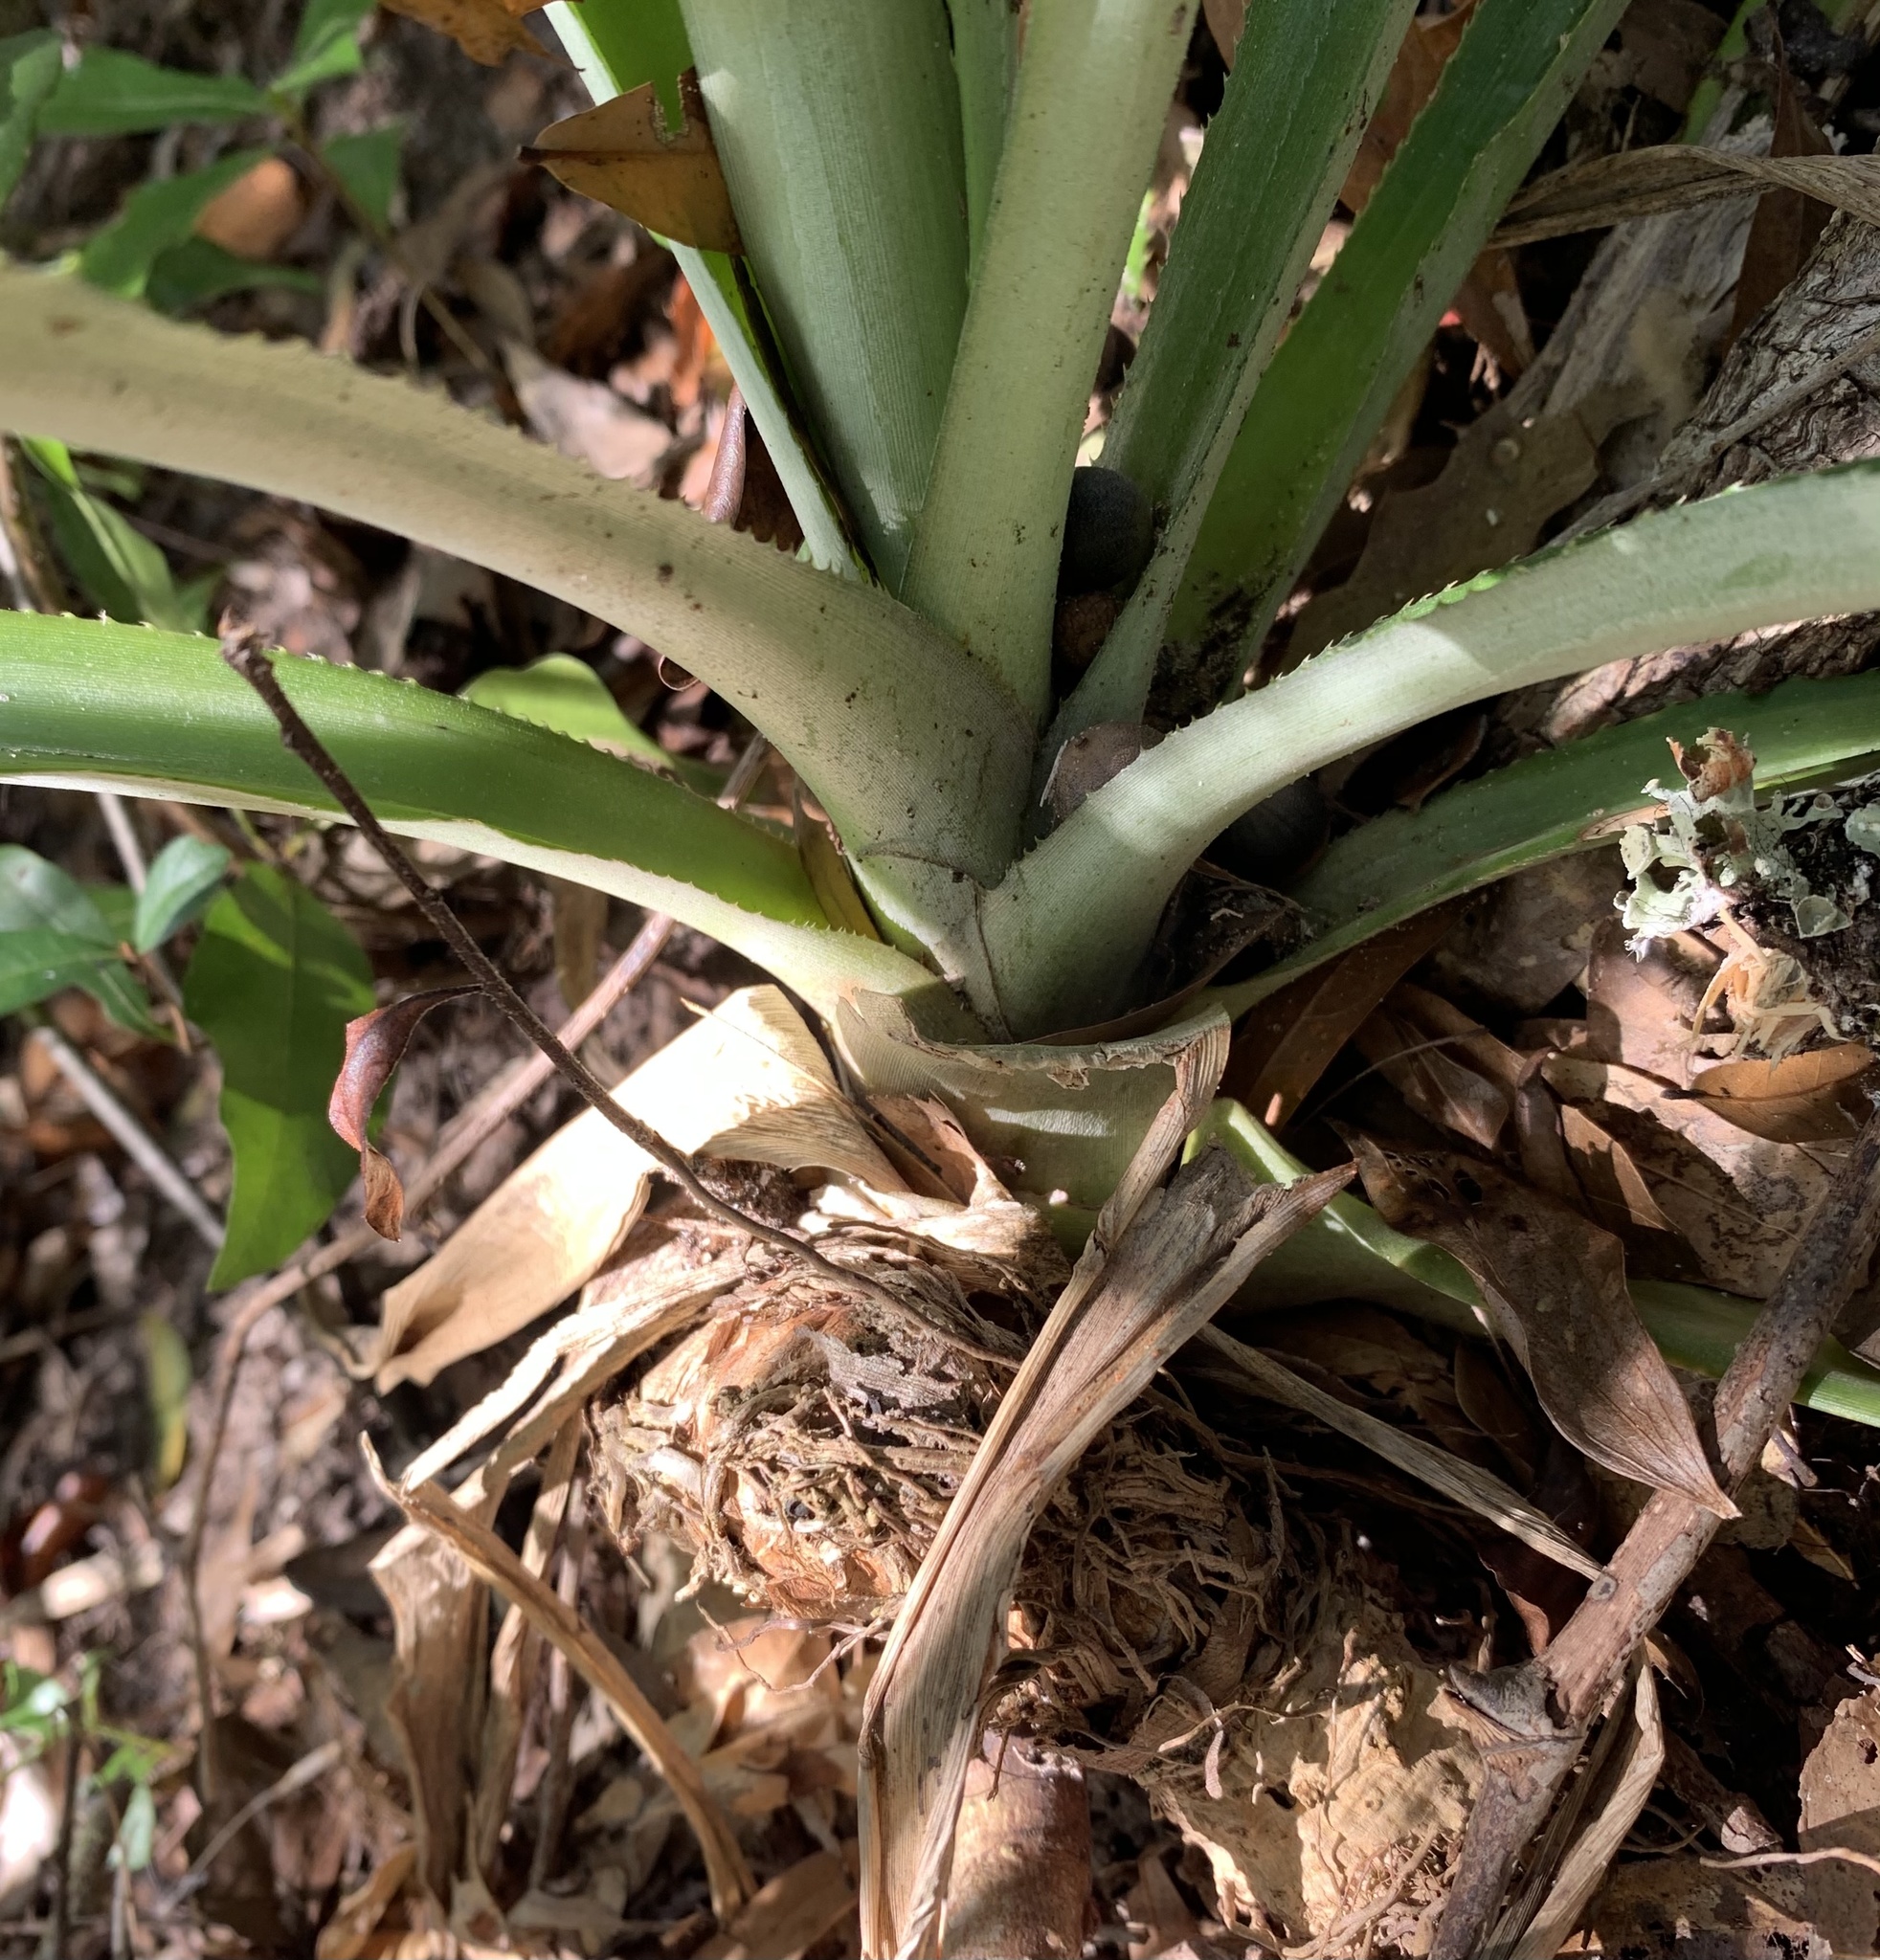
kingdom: Plantae
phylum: Tracheophyta
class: Liliopsida
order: Poales
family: Bromeliaceae
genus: Ananas
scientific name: Ananas comosus
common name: Pineapple
